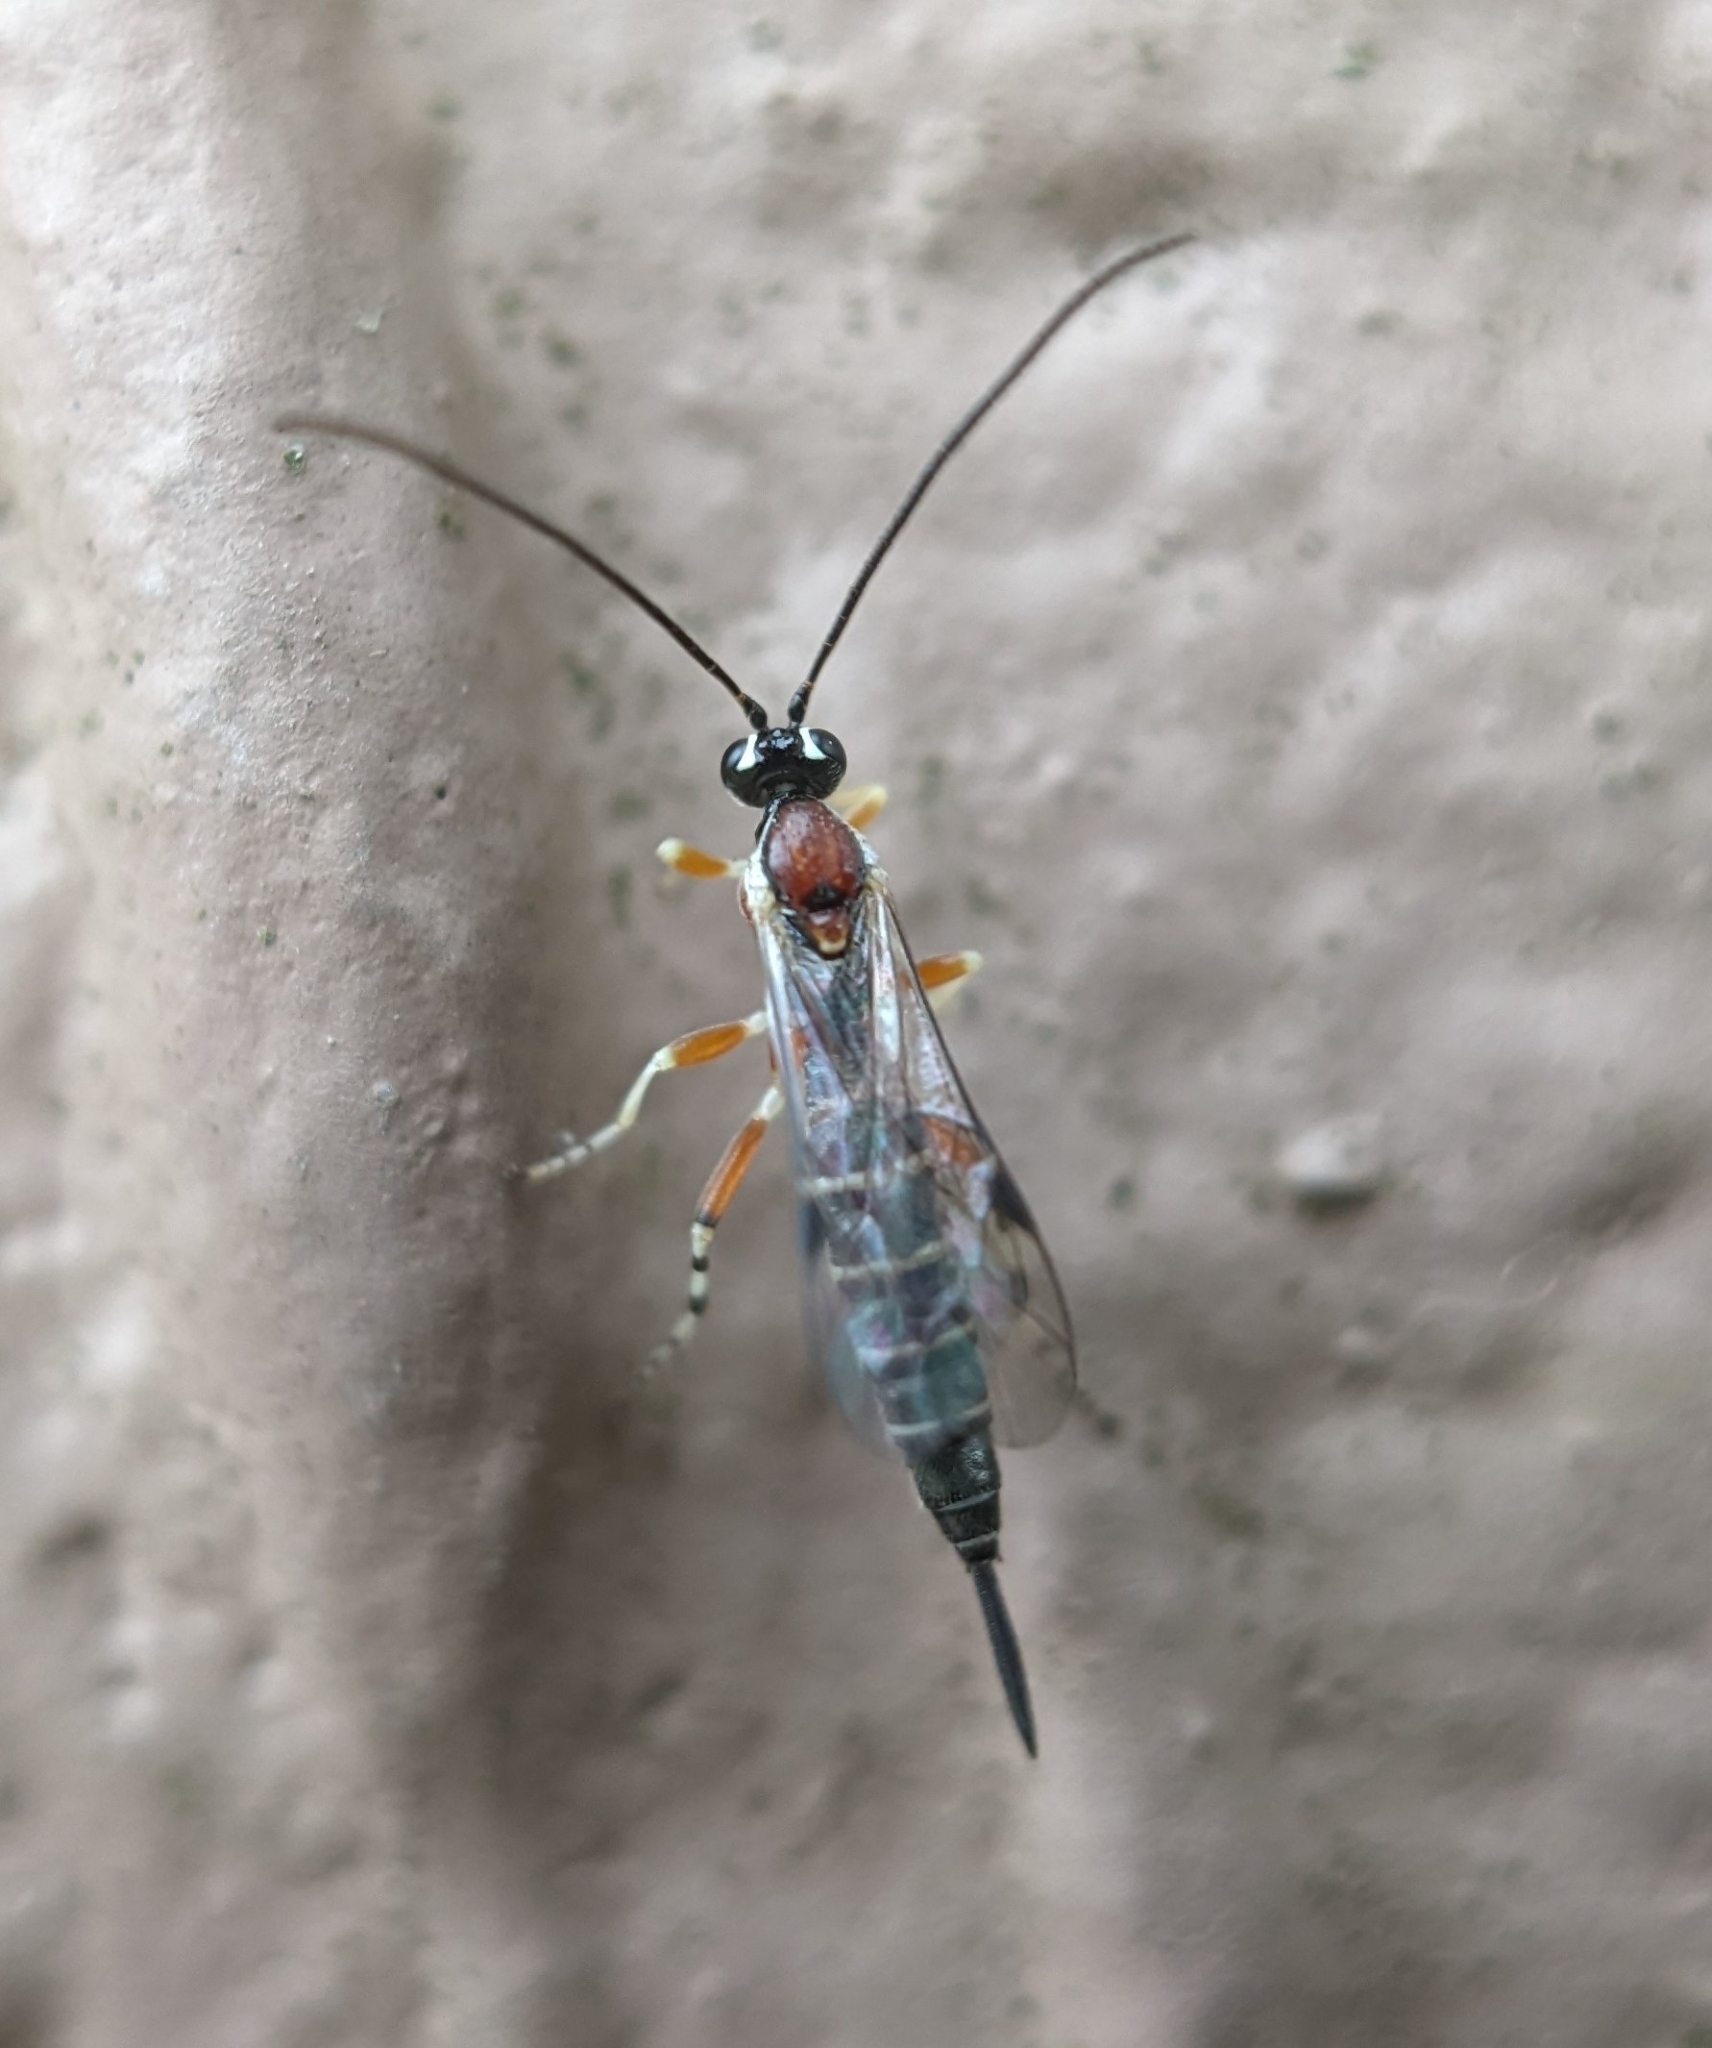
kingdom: Animalia
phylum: Arthropoda
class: Insecta
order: Hymenoptera
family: Ichneumonidae
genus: Tromatobia
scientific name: Tromatobia zonata
